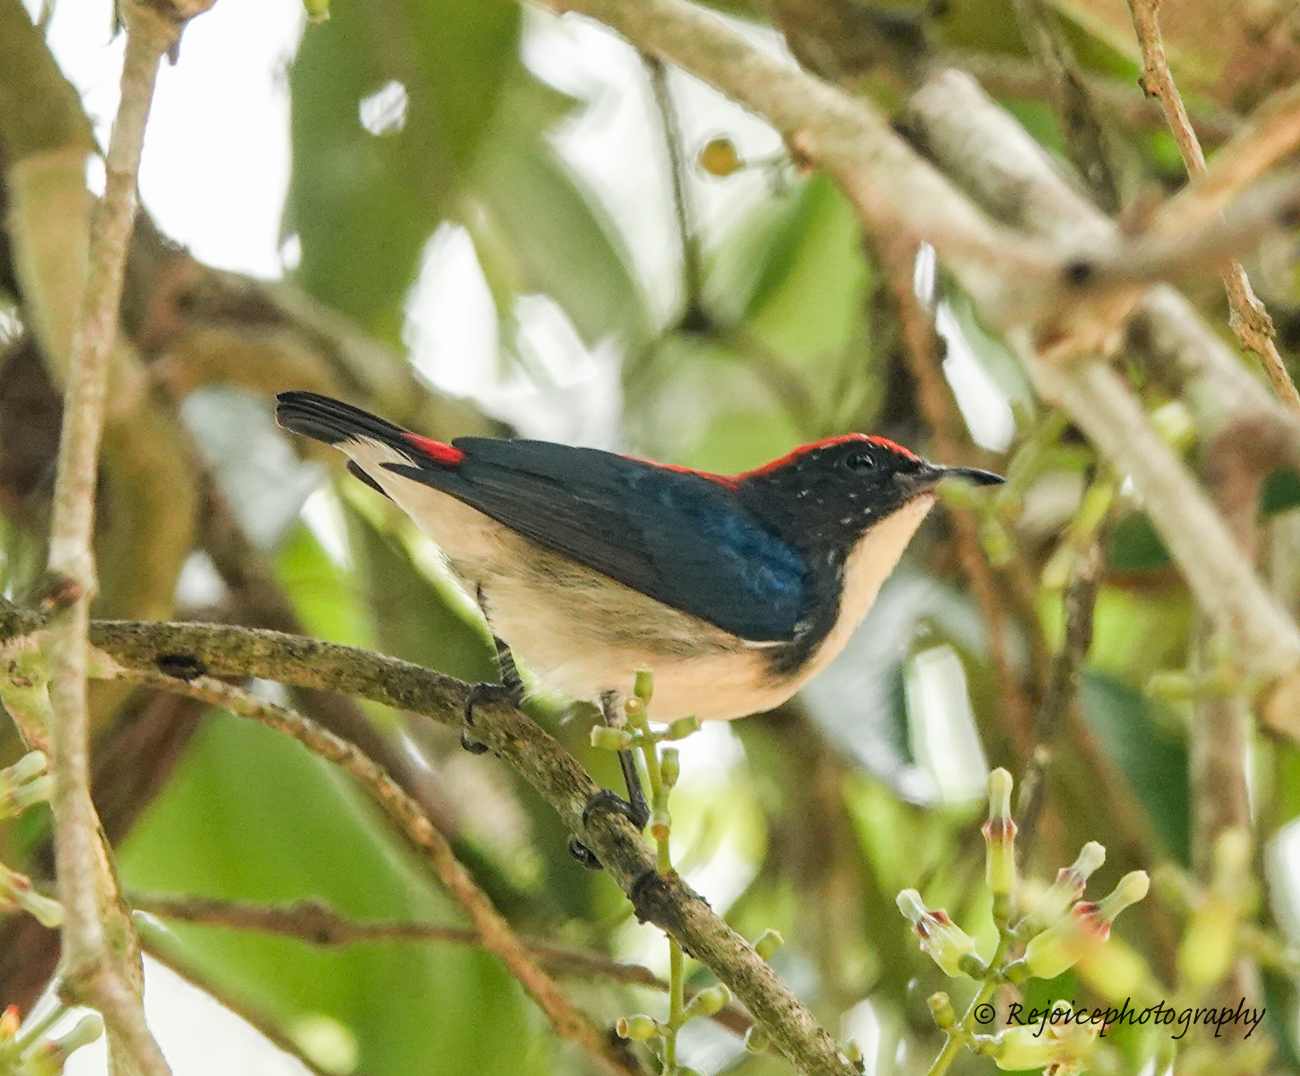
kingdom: Animalia
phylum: Chordata
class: Aves
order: Passeriformes
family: Dicaeidae
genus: Dicaeum
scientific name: Dicaeum cruentatum
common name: Scarlet-backed flowerpecker
